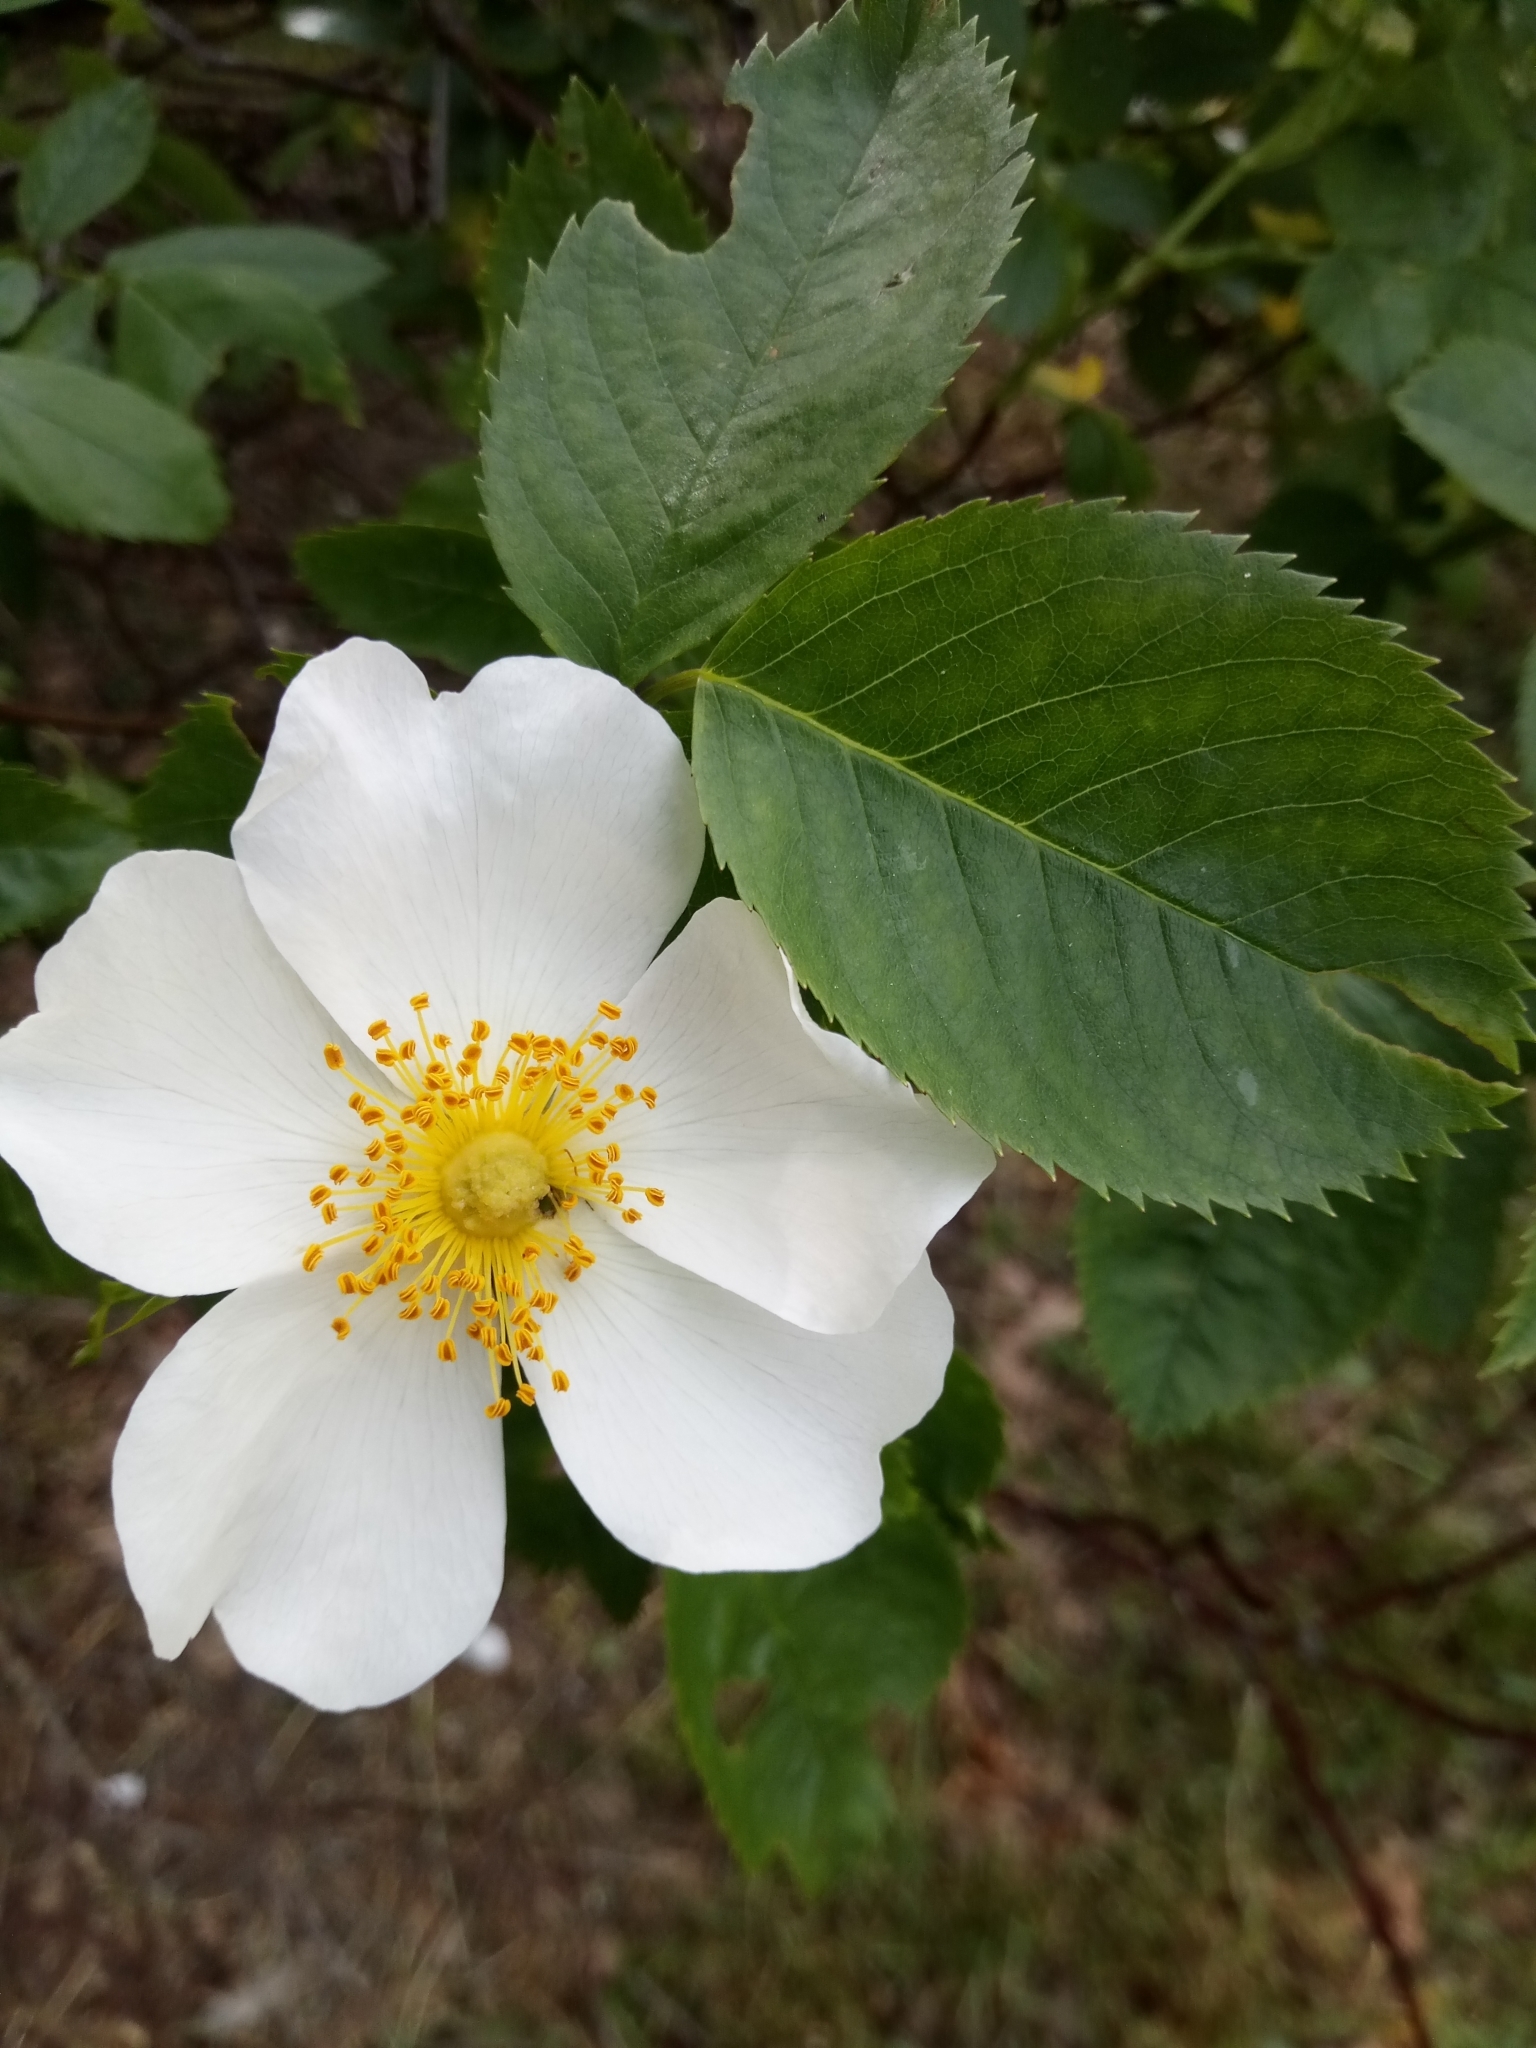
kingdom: Plantae
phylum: Tracheophyta
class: Magnoliopsida
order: Rosales
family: Rosaceae
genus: Rosa
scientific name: Rosa canina
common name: Dog rose
